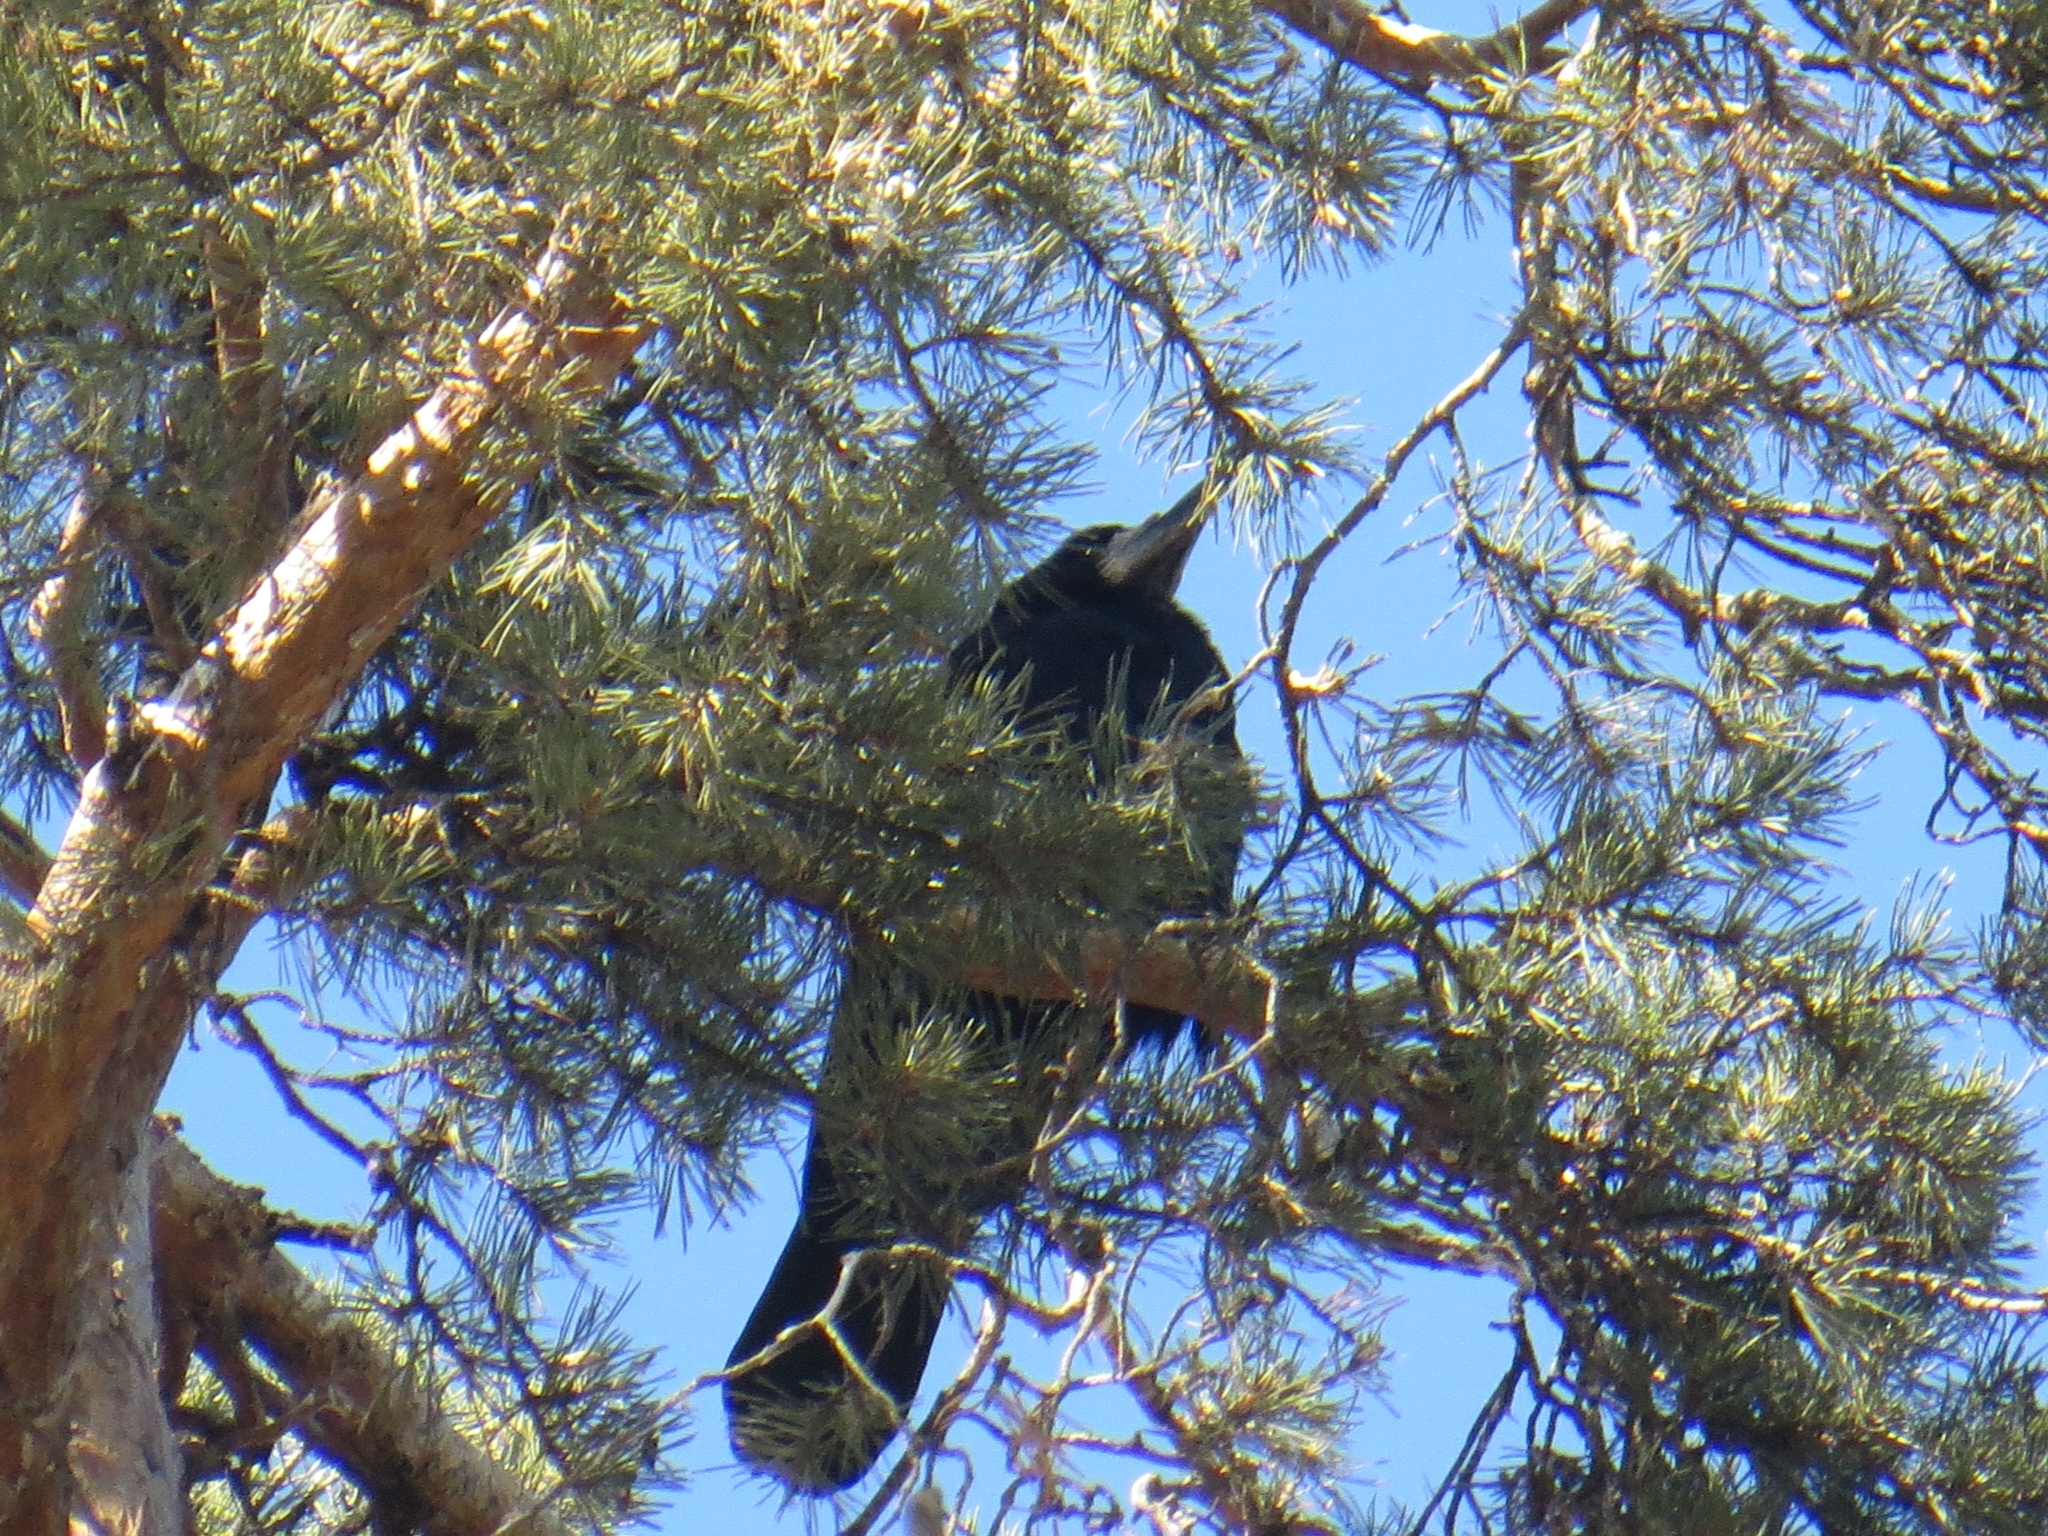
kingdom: Animalia
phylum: Chordata
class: Aves
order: Passeriformes
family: Corvidae
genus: Corvus
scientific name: Corvus frugilegus
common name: Rook
